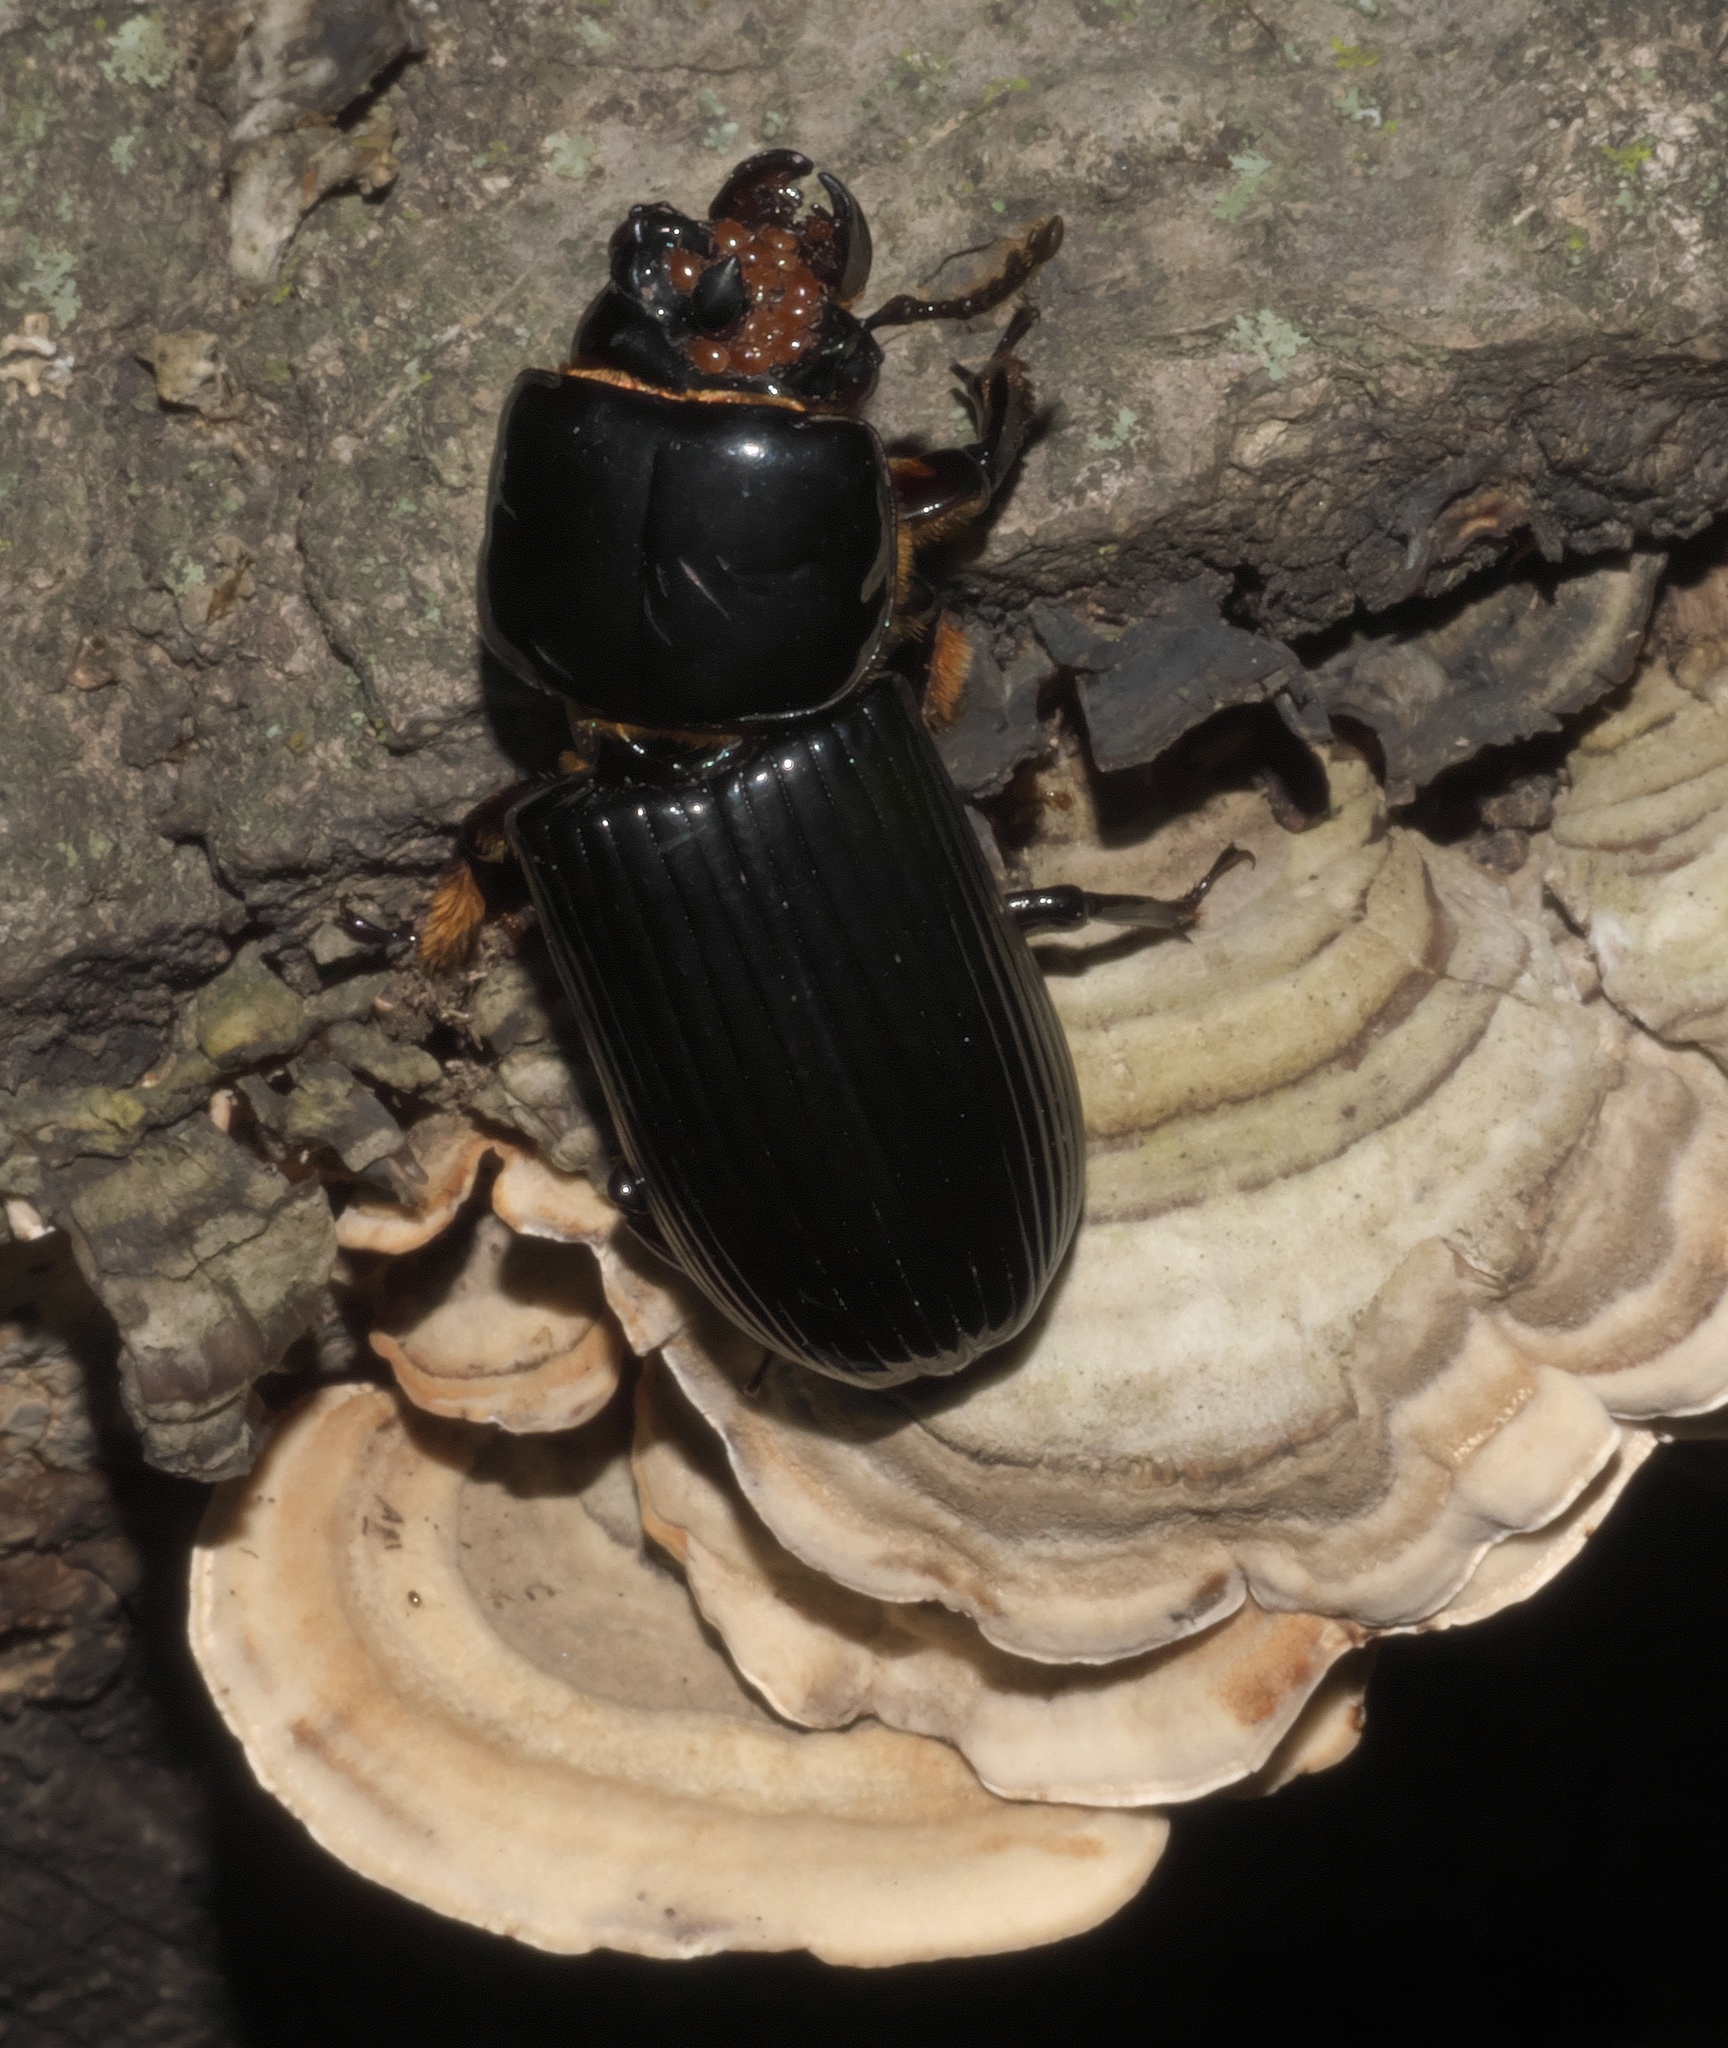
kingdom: Animalia
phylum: Arthropoda
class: Insecta
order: Coleoptera
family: Passalidae
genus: Odontotaenius
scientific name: Odontotaenius disjunctus
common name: Patent leather beetle
